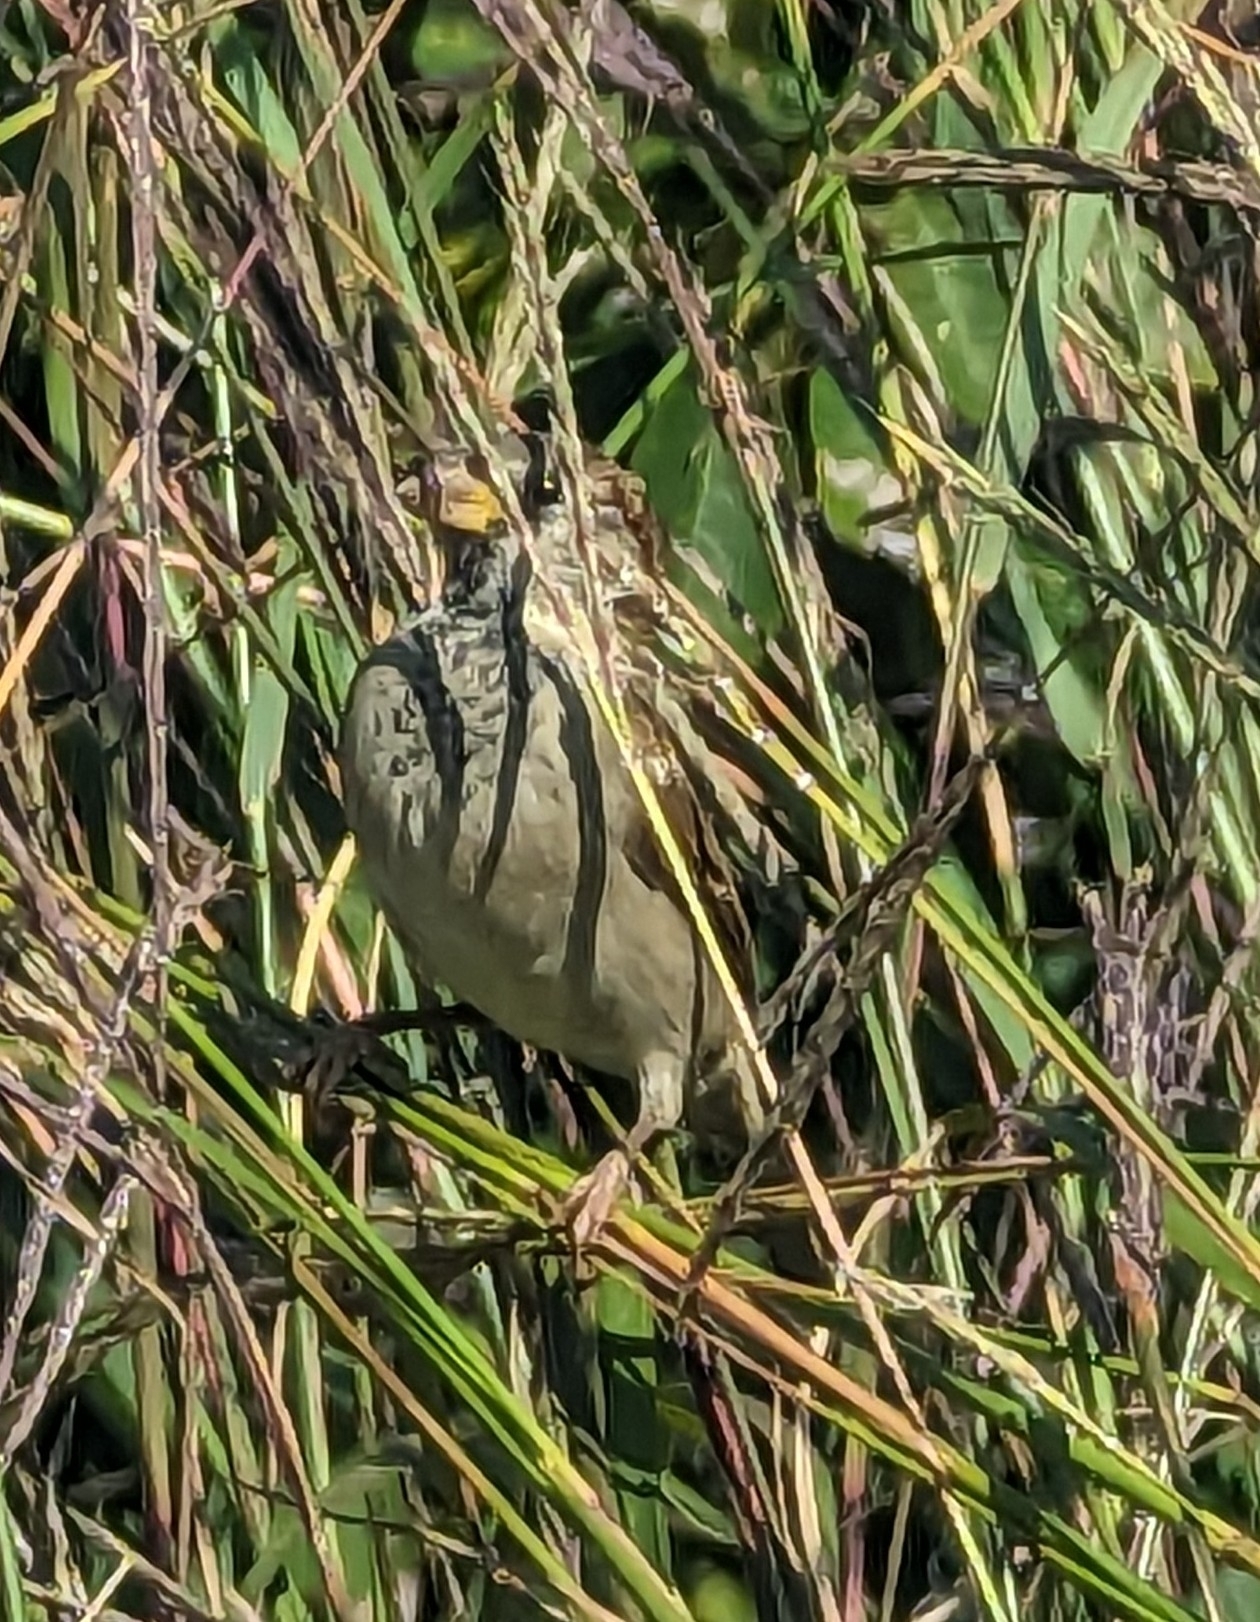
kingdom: Animalia
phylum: Chordata
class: Aves
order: Passeriformes
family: Passeridae
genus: Passer
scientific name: Passer domesticus
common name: House sparrow
